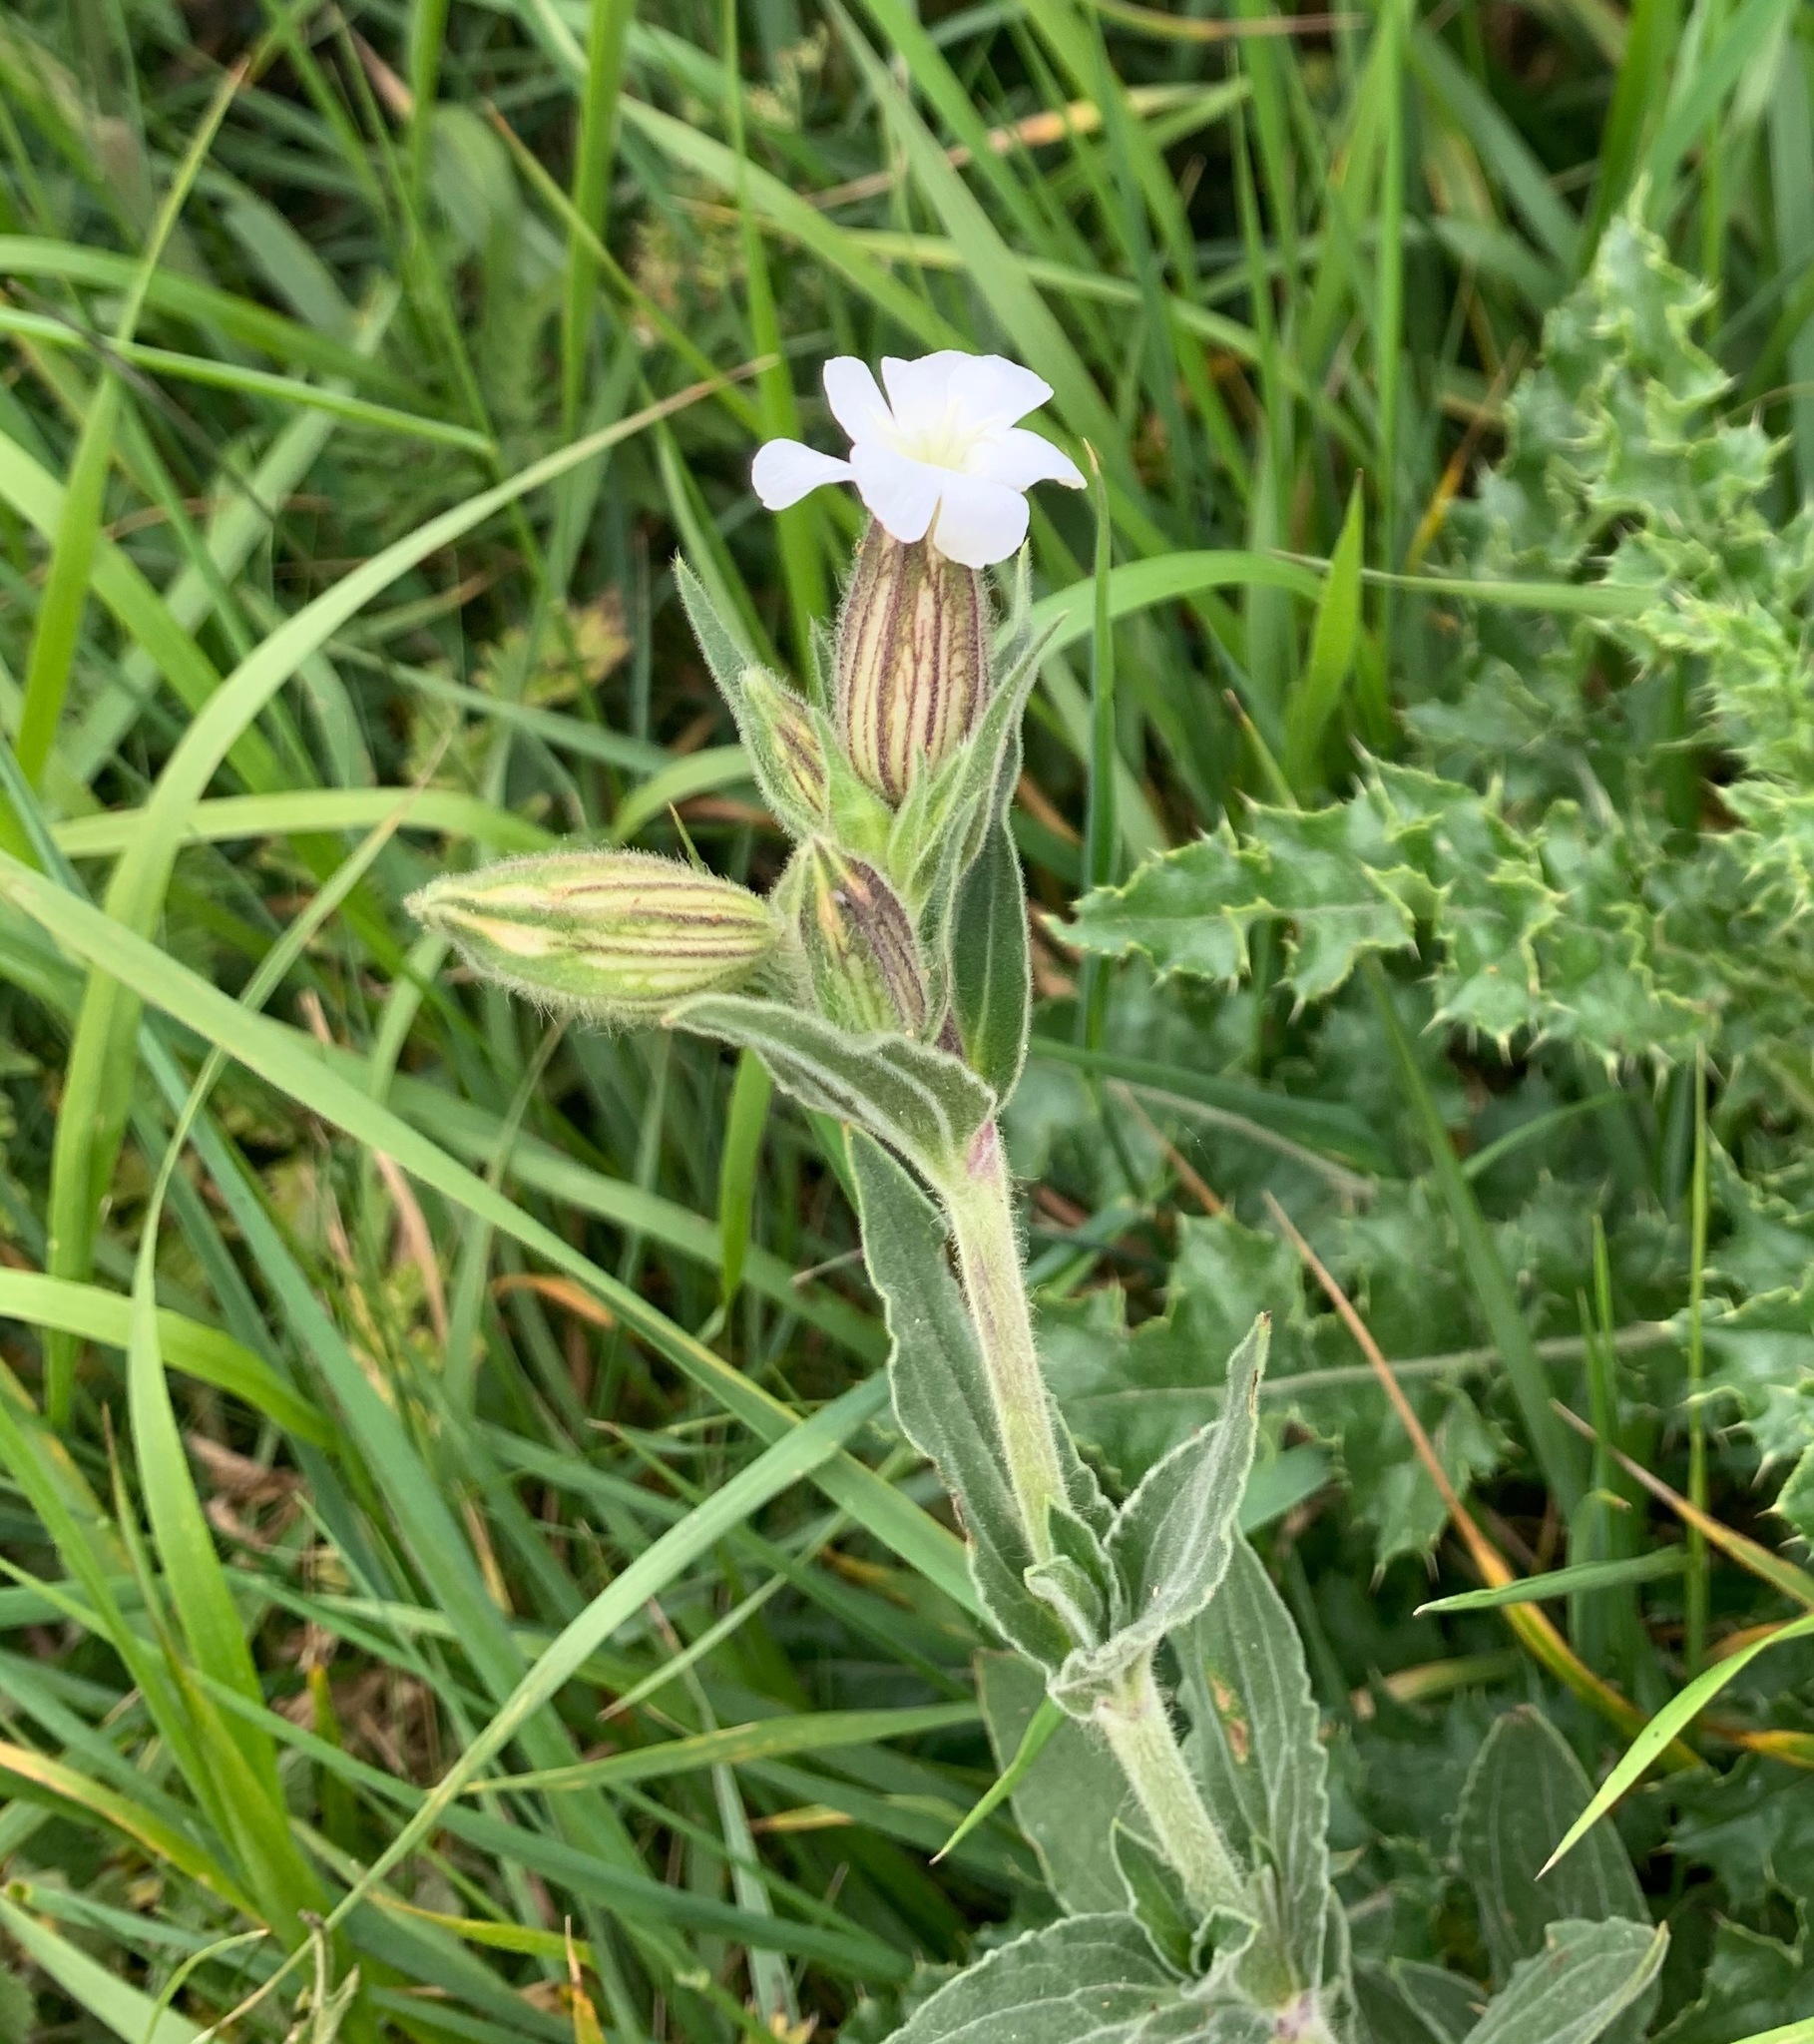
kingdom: Plantae
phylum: Tracheophyta
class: Magnoliopsida
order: Caryophyllales
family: Caryophyllaceae
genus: Silene
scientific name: Silene latifolia
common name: White campion
